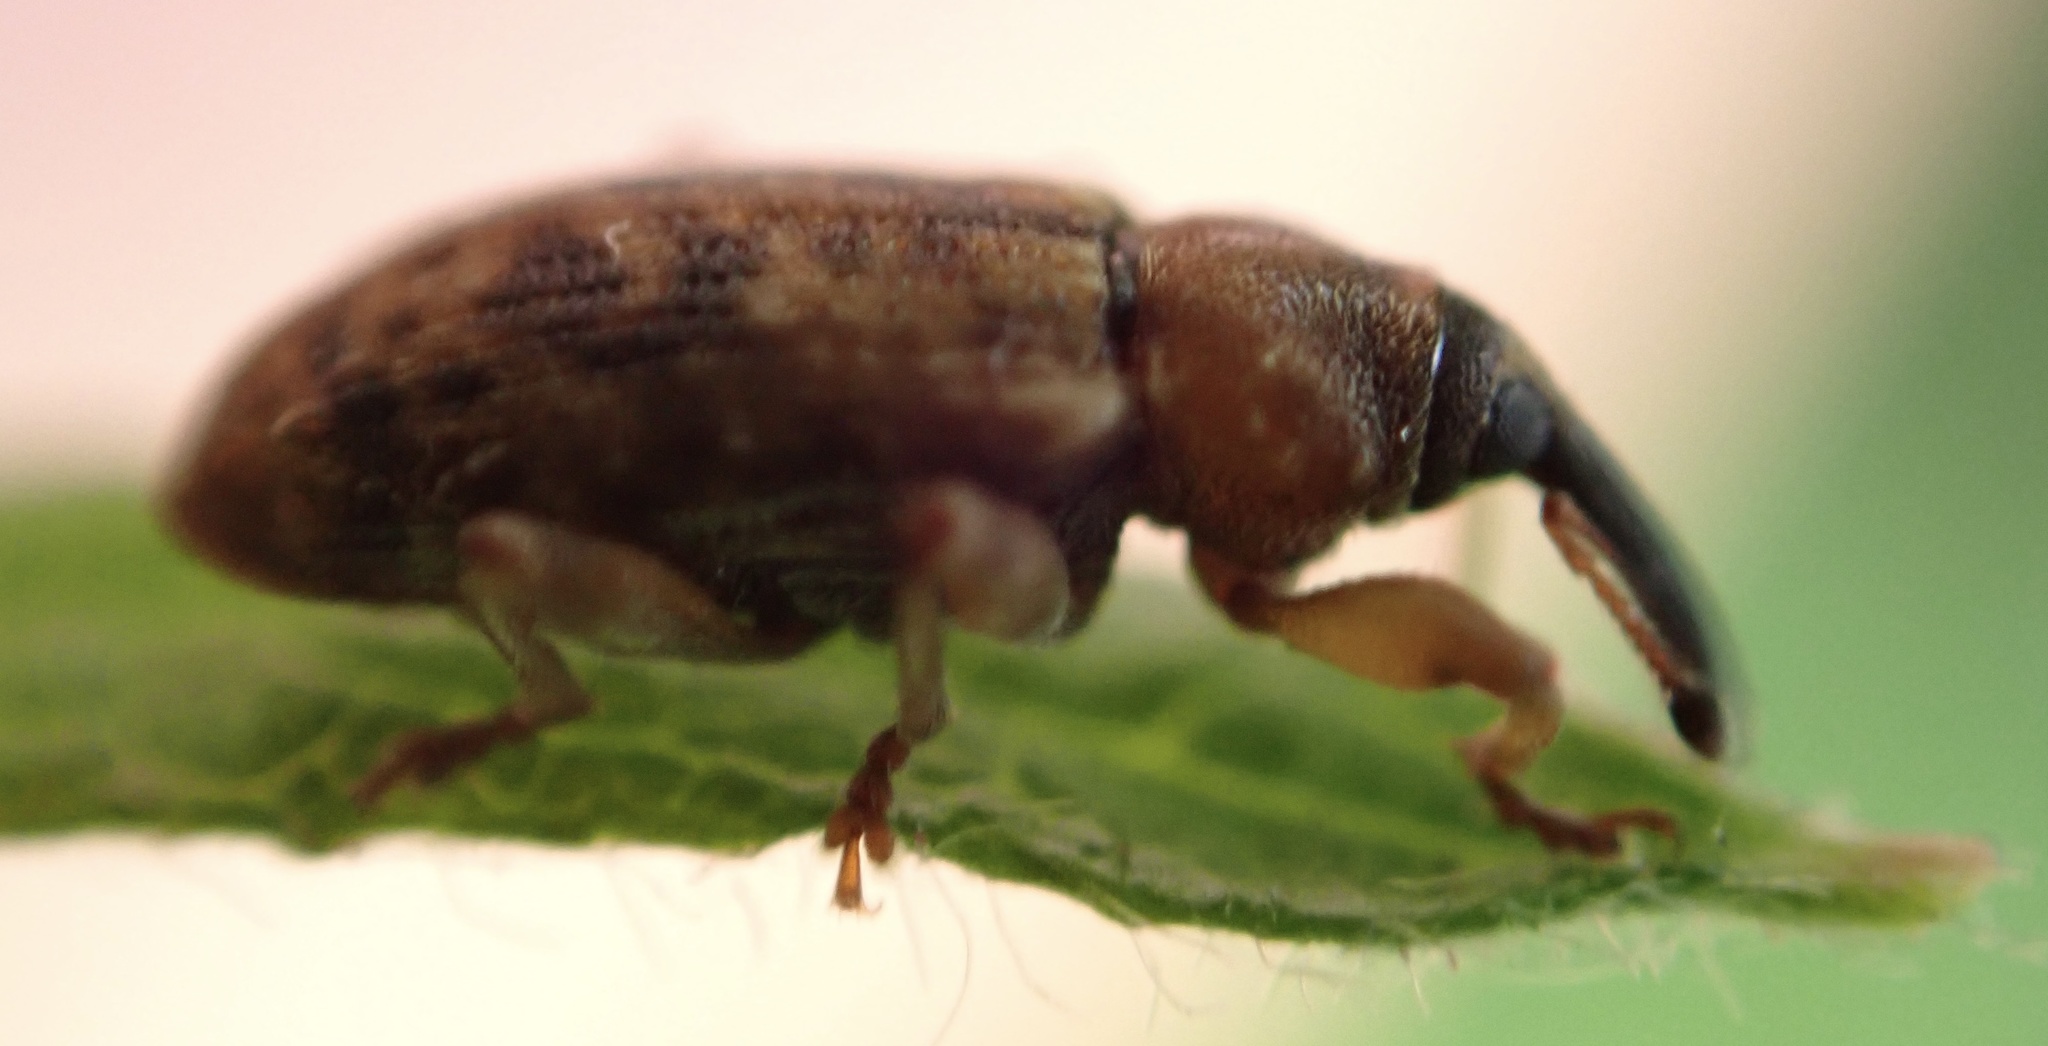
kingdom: Animalia
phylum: Arthropoda
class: Insecta
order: Coleoptera
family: Curculionidae
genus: Dorytomus
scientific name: Dorytomus taeniatus
